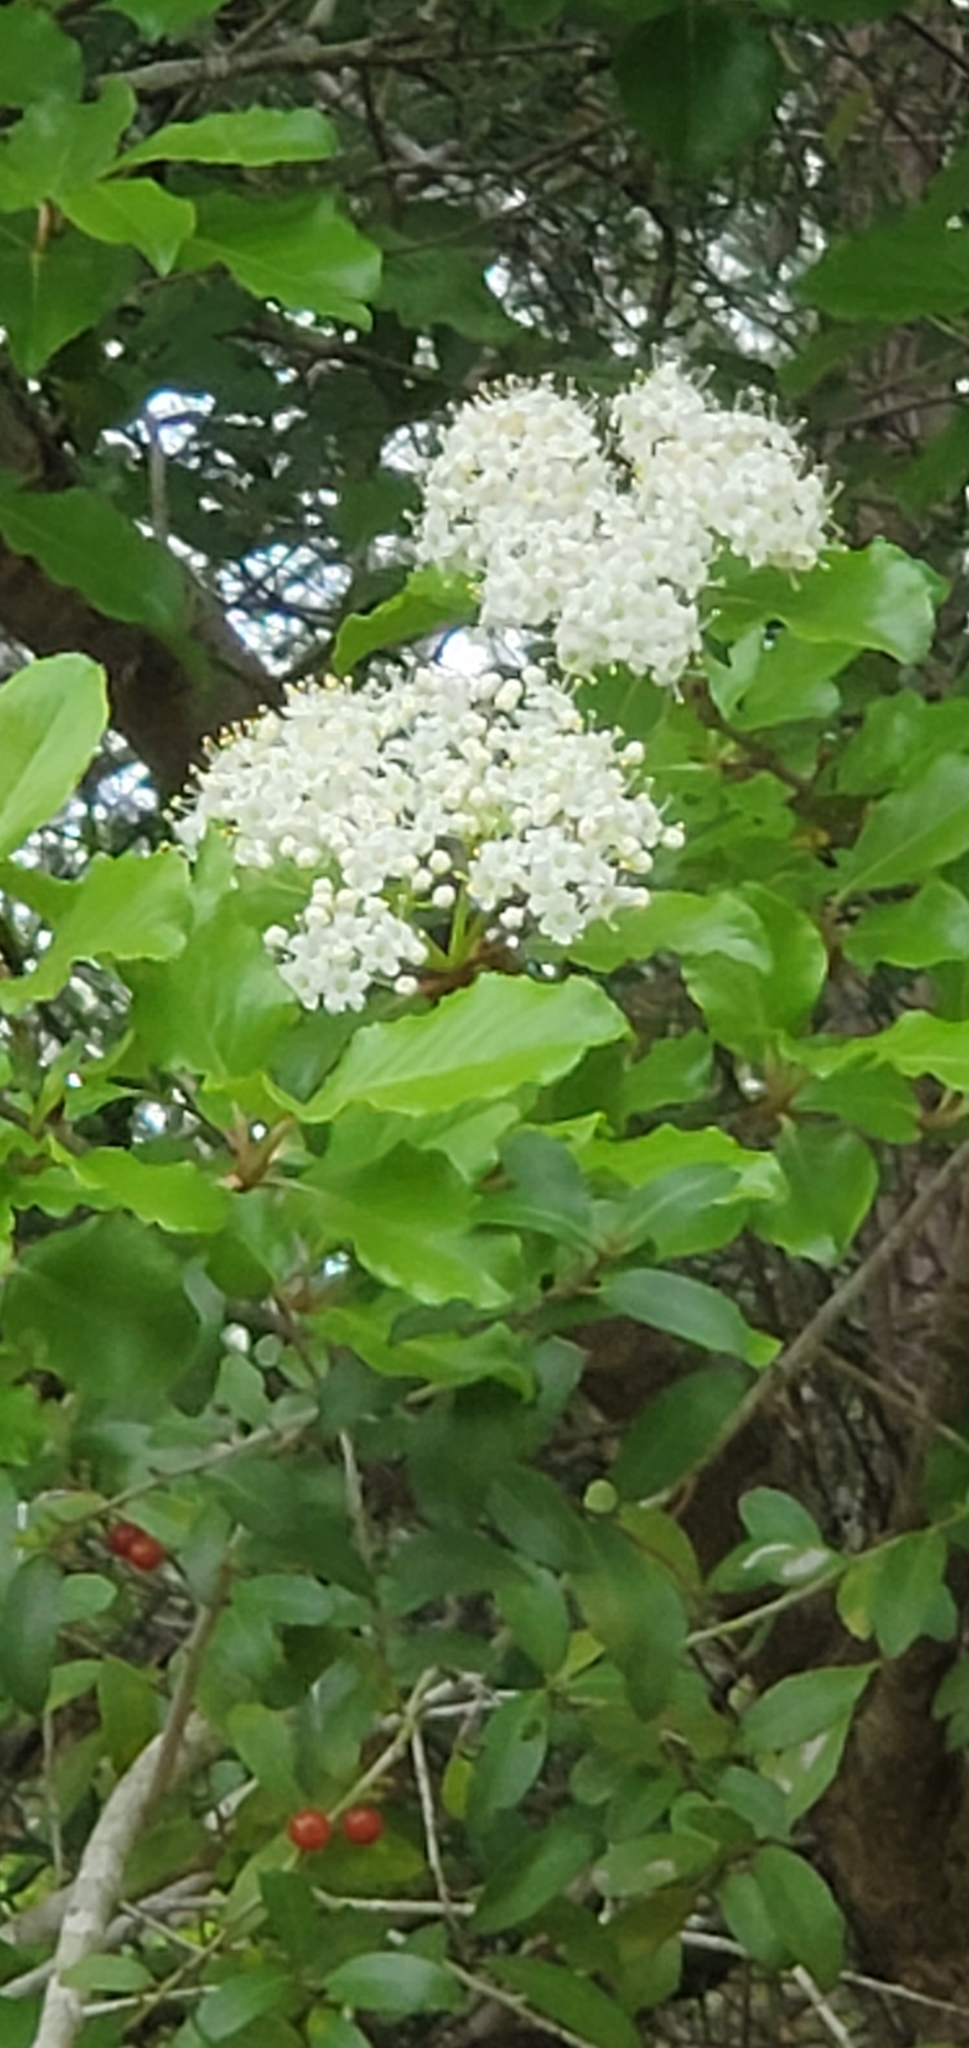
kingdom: Plantae
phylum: Tracheophyta
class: Magnoliopsida
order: Dipsacales
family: Viburnaceae
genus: Viburnum
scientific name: Viburnum rufidulum
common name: Blue haw
